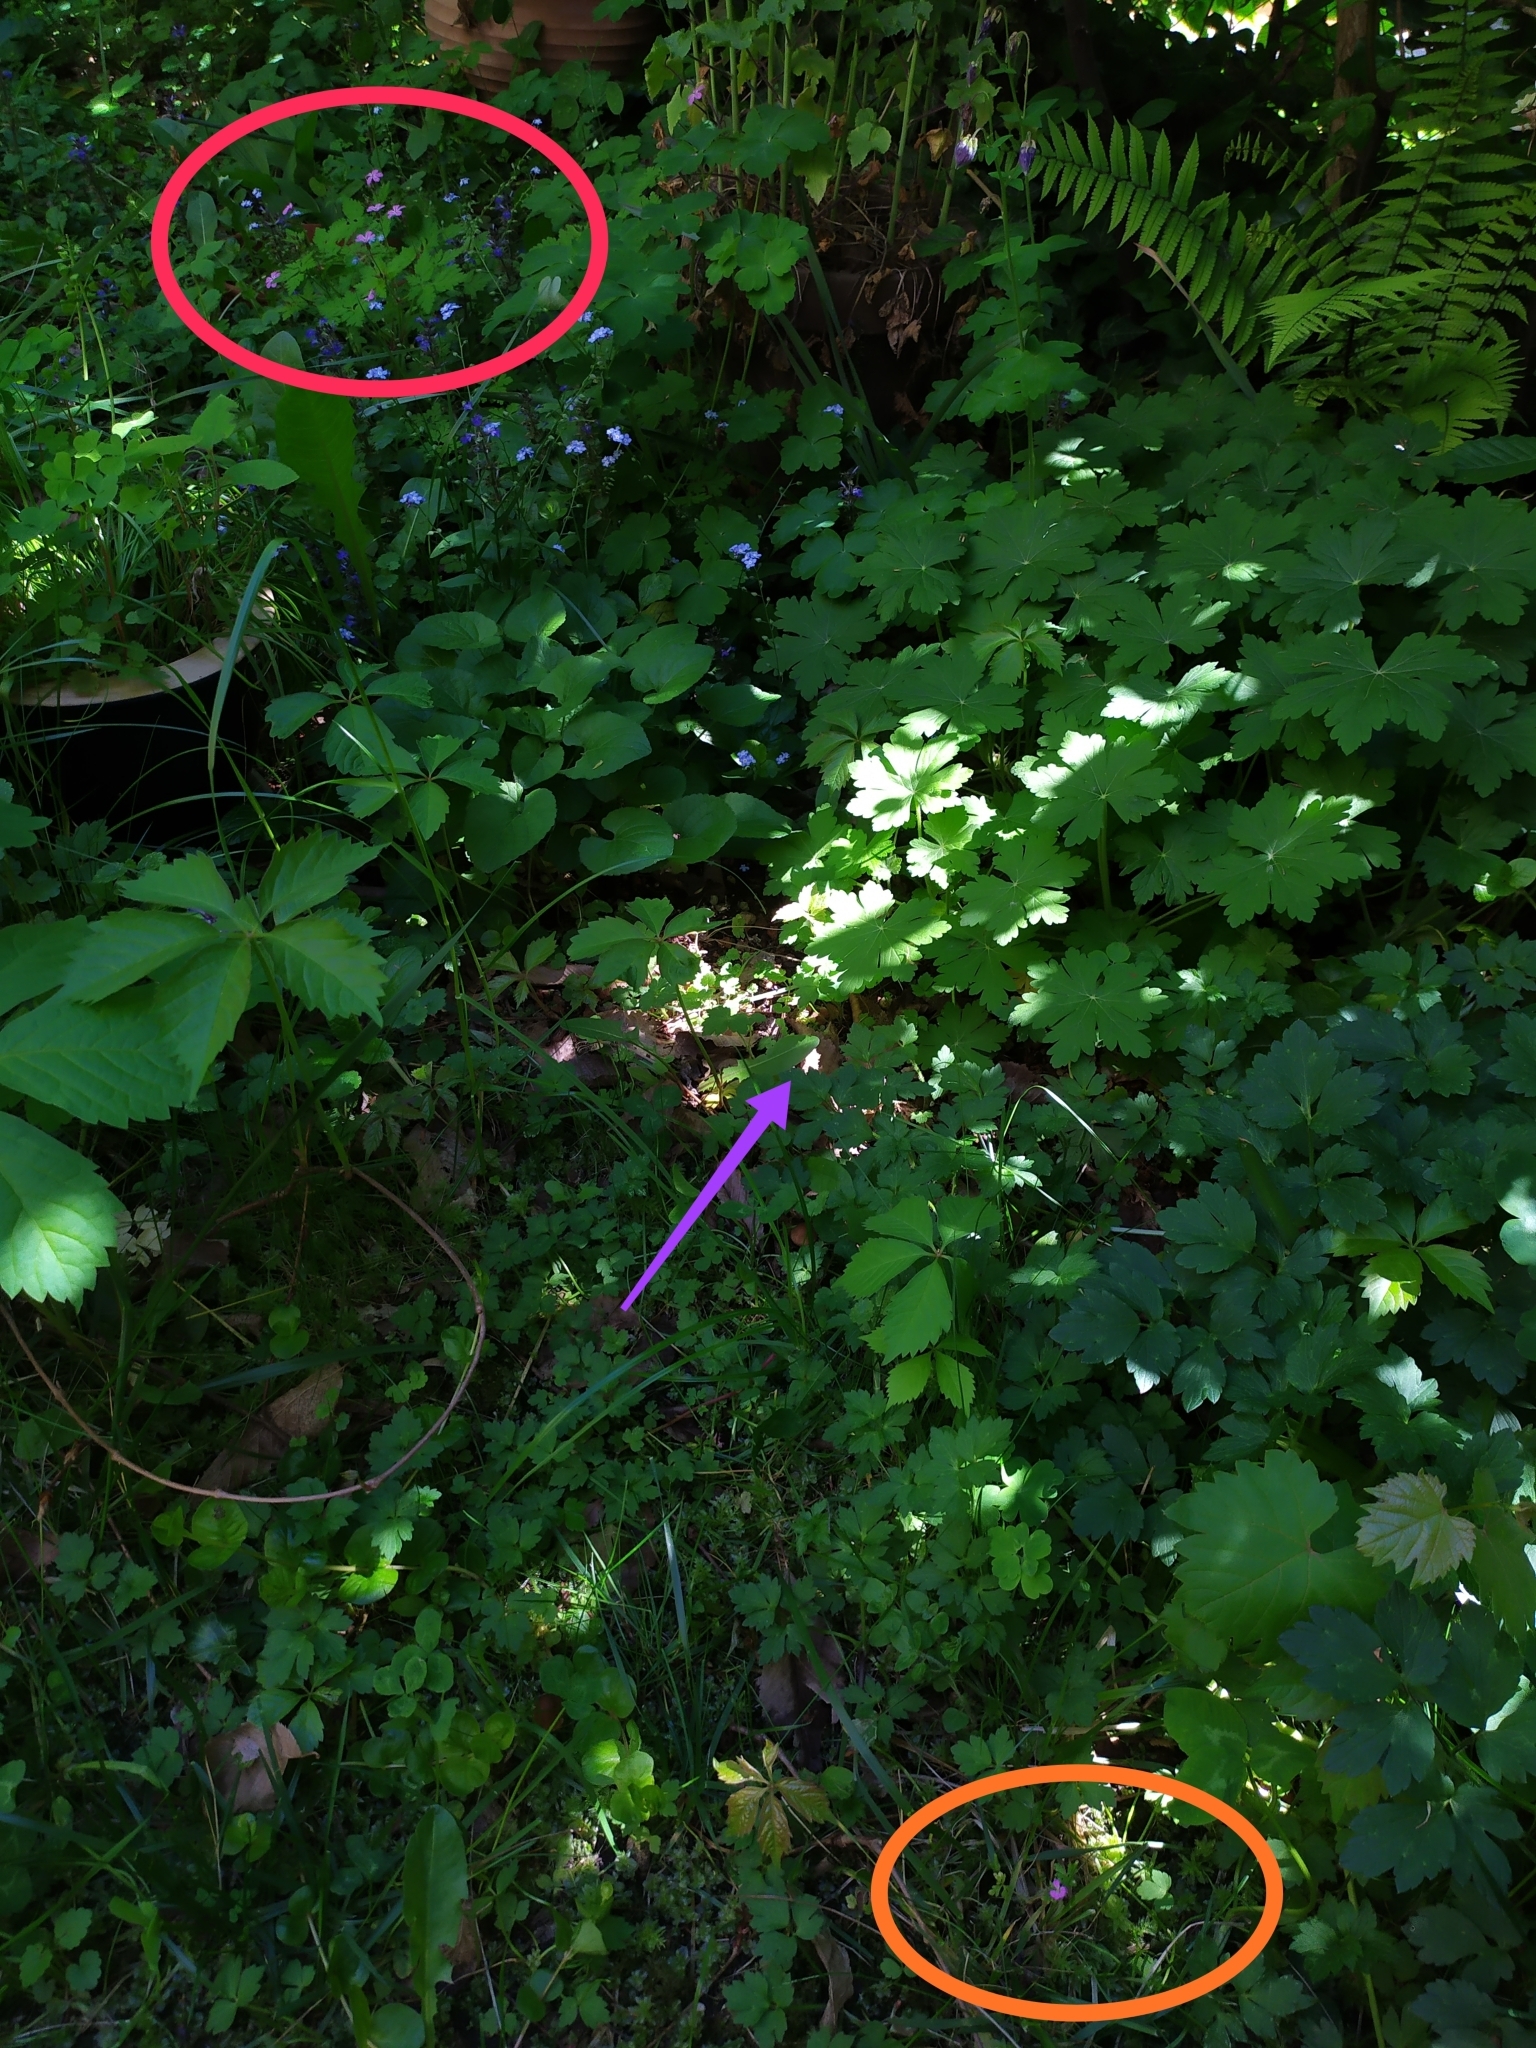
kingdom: Plantae
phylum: Tracheophyta
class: Magnoliopsida
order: Geraniales
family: Geraniaceae
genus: Geranium
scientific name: Geranium purpureum
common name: Little-robin
